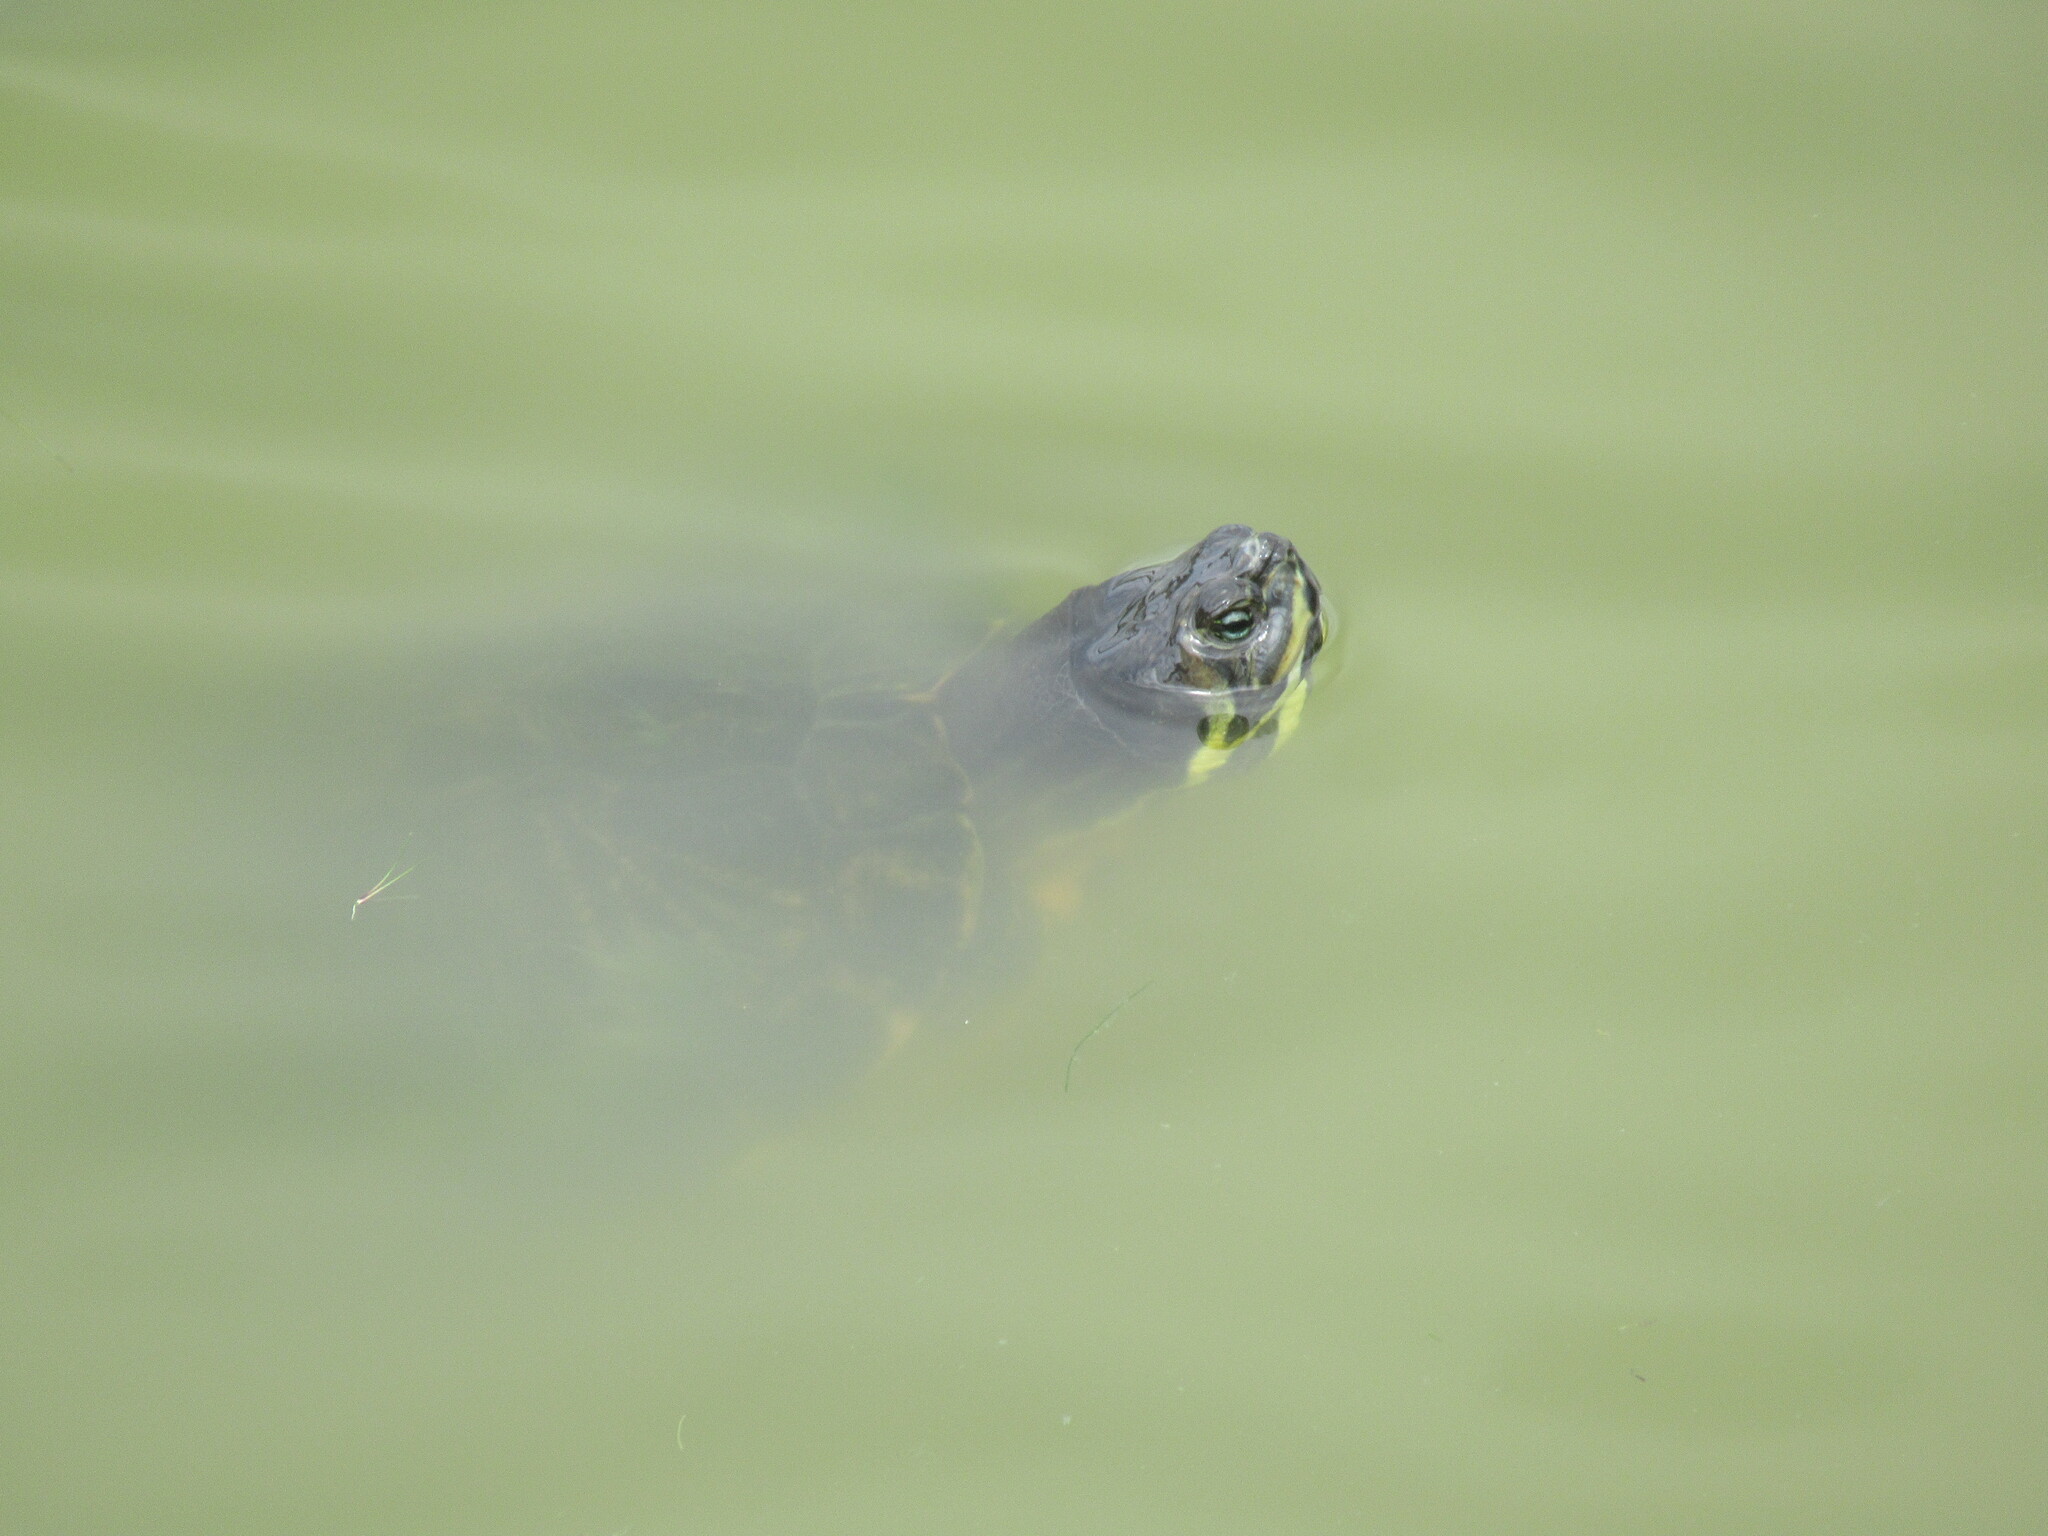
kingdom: Animalia
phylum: Chordata
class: Testudines
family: Emydidae
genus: Trachemys
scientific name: Trachemys scripta
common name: Slider
